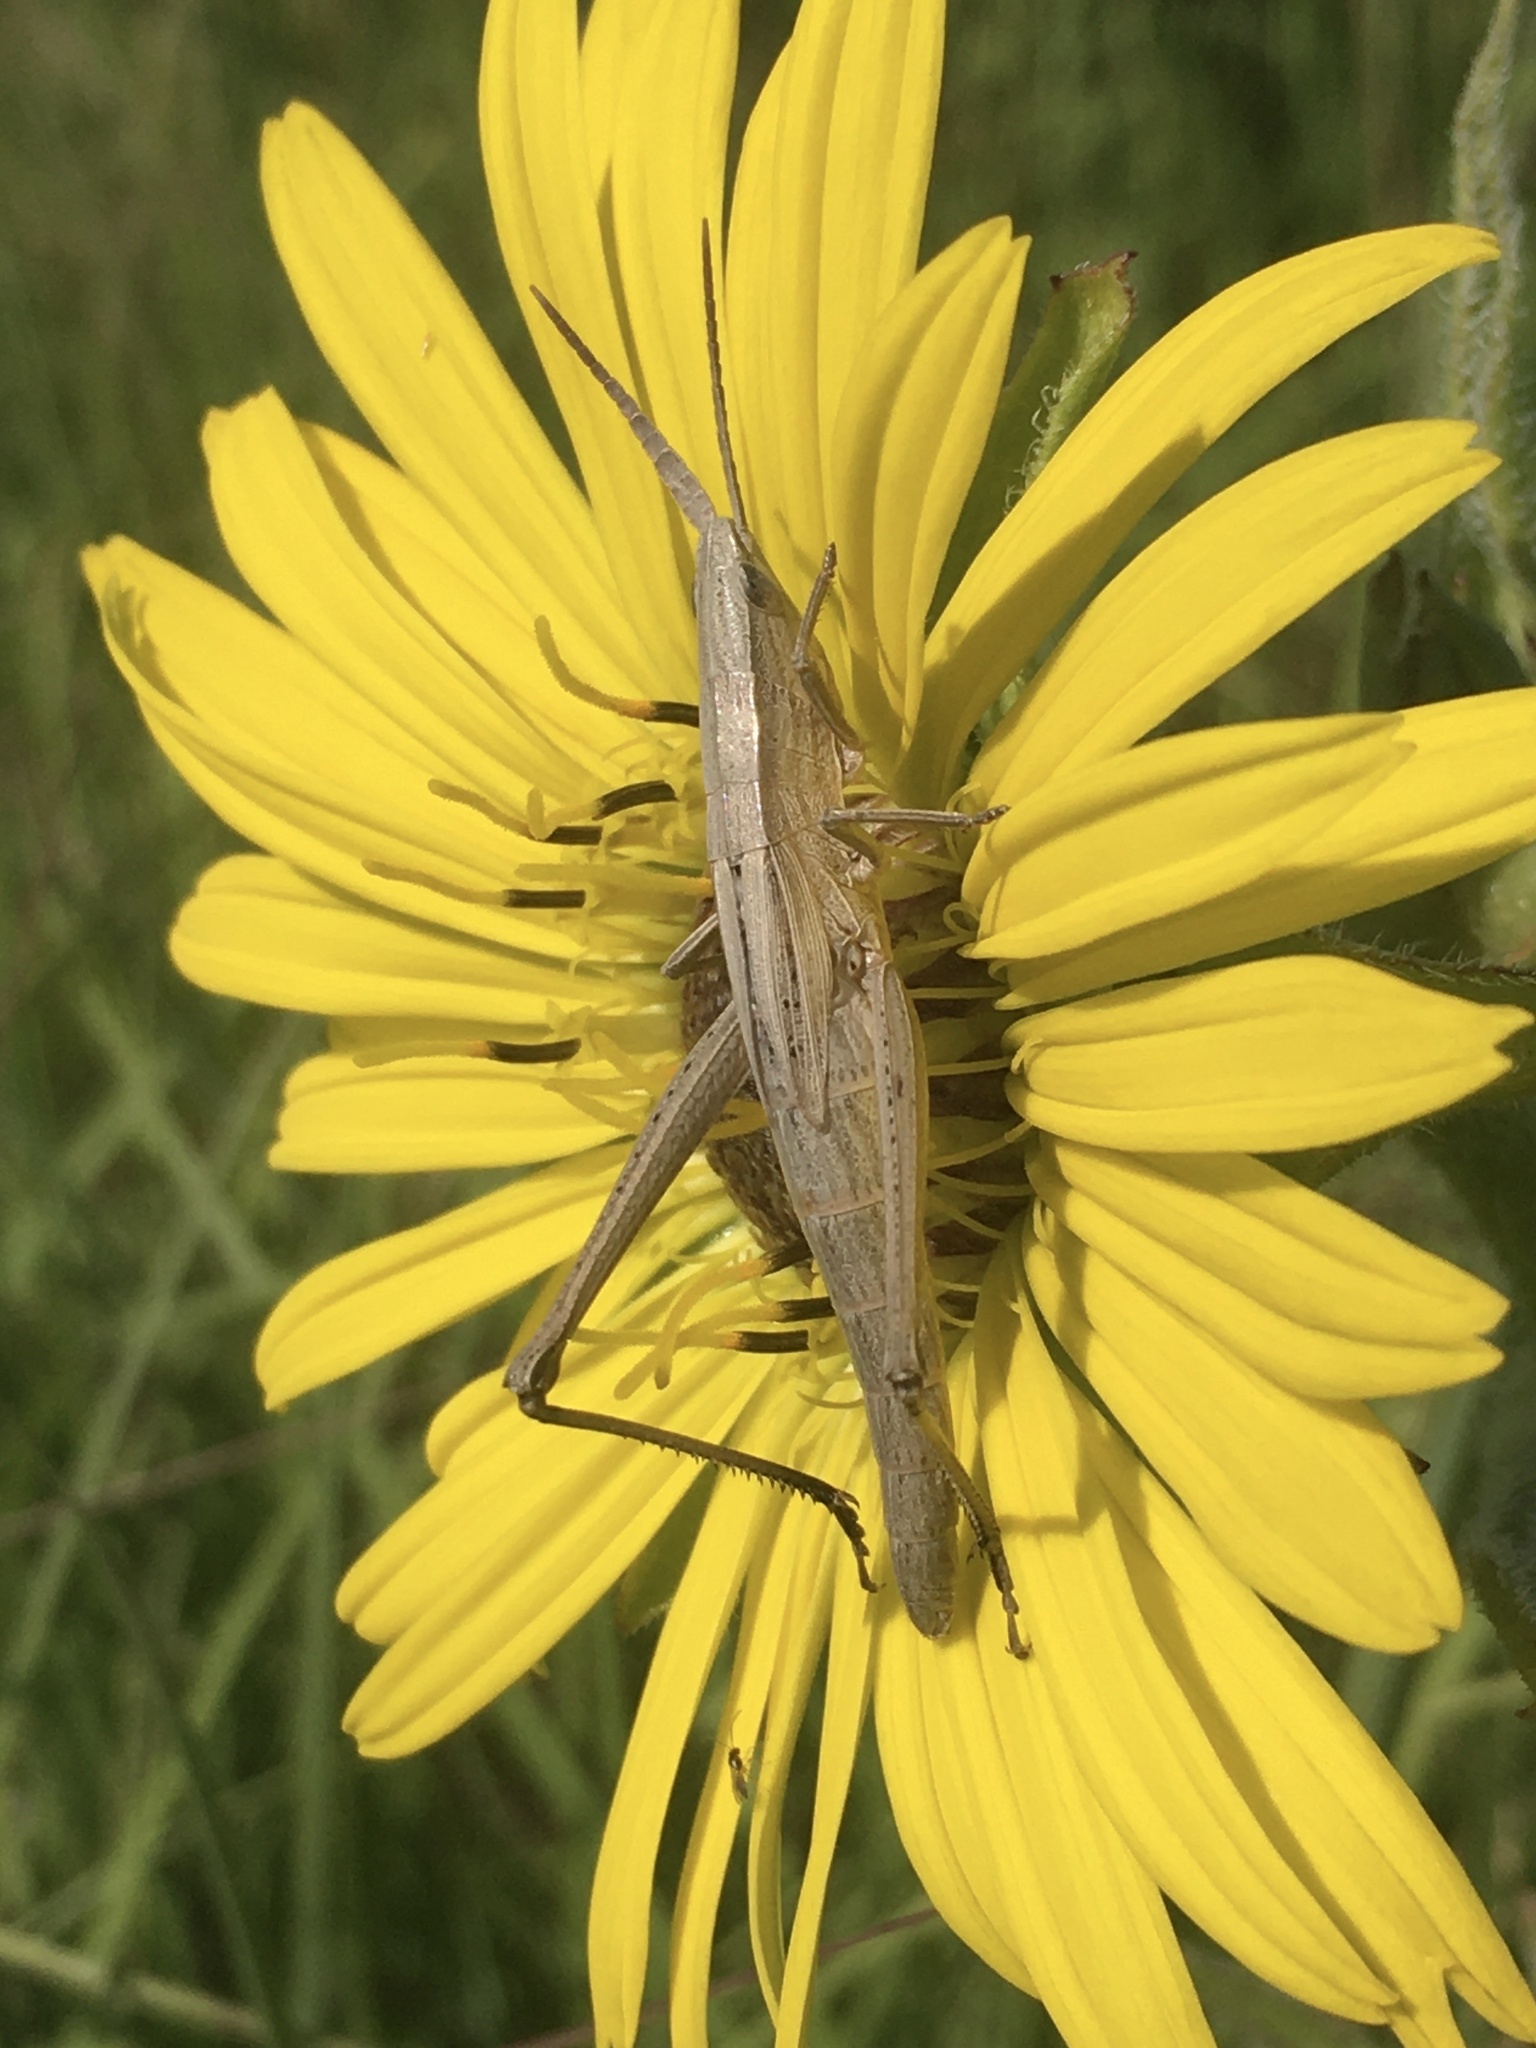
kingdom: Animalia
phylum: Arthropoda
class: Insecta
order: Orthoptera
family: Acrididae
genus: Pseudopomala
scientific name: Pseudopomala brachyptera
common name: Bunchgrass grasshopper
